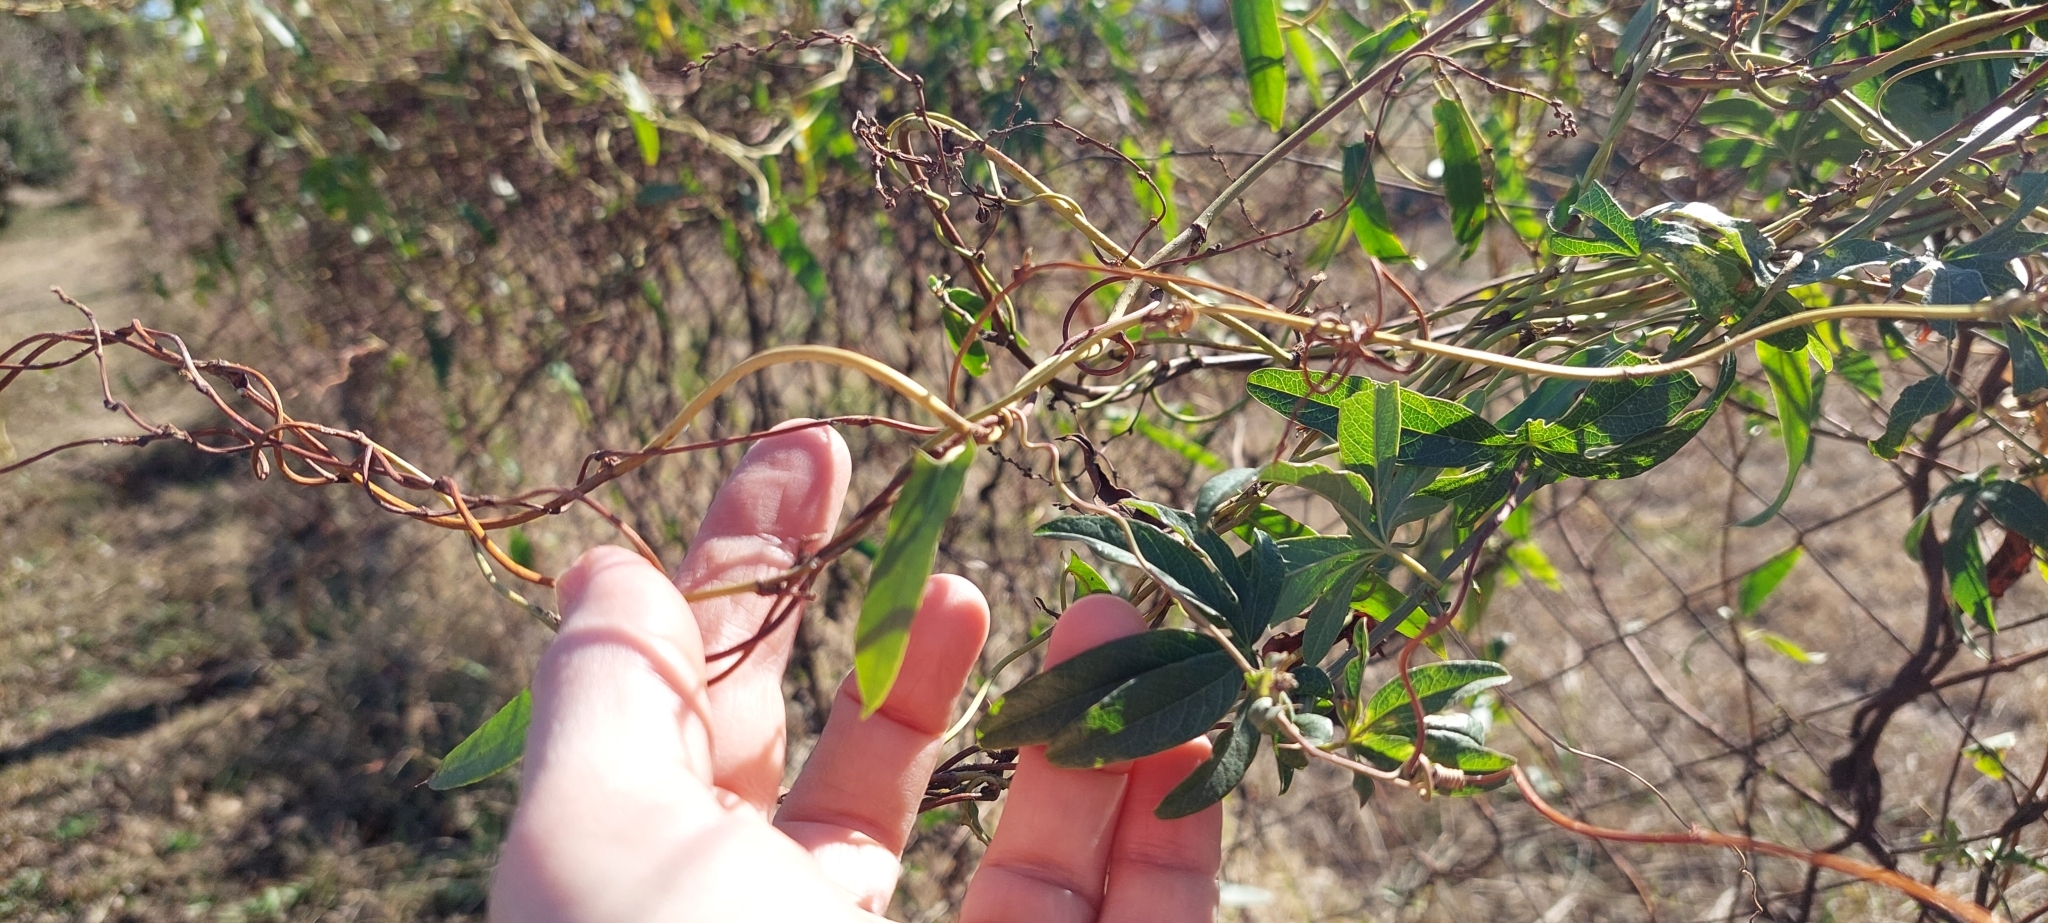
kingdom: Plantae
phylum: Tracheophyta
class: Magnoliopsida
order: Malpighiales
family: Passifloraceae
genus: Passiflora
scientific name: Passiflora caerulea
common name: Blue passionflower
